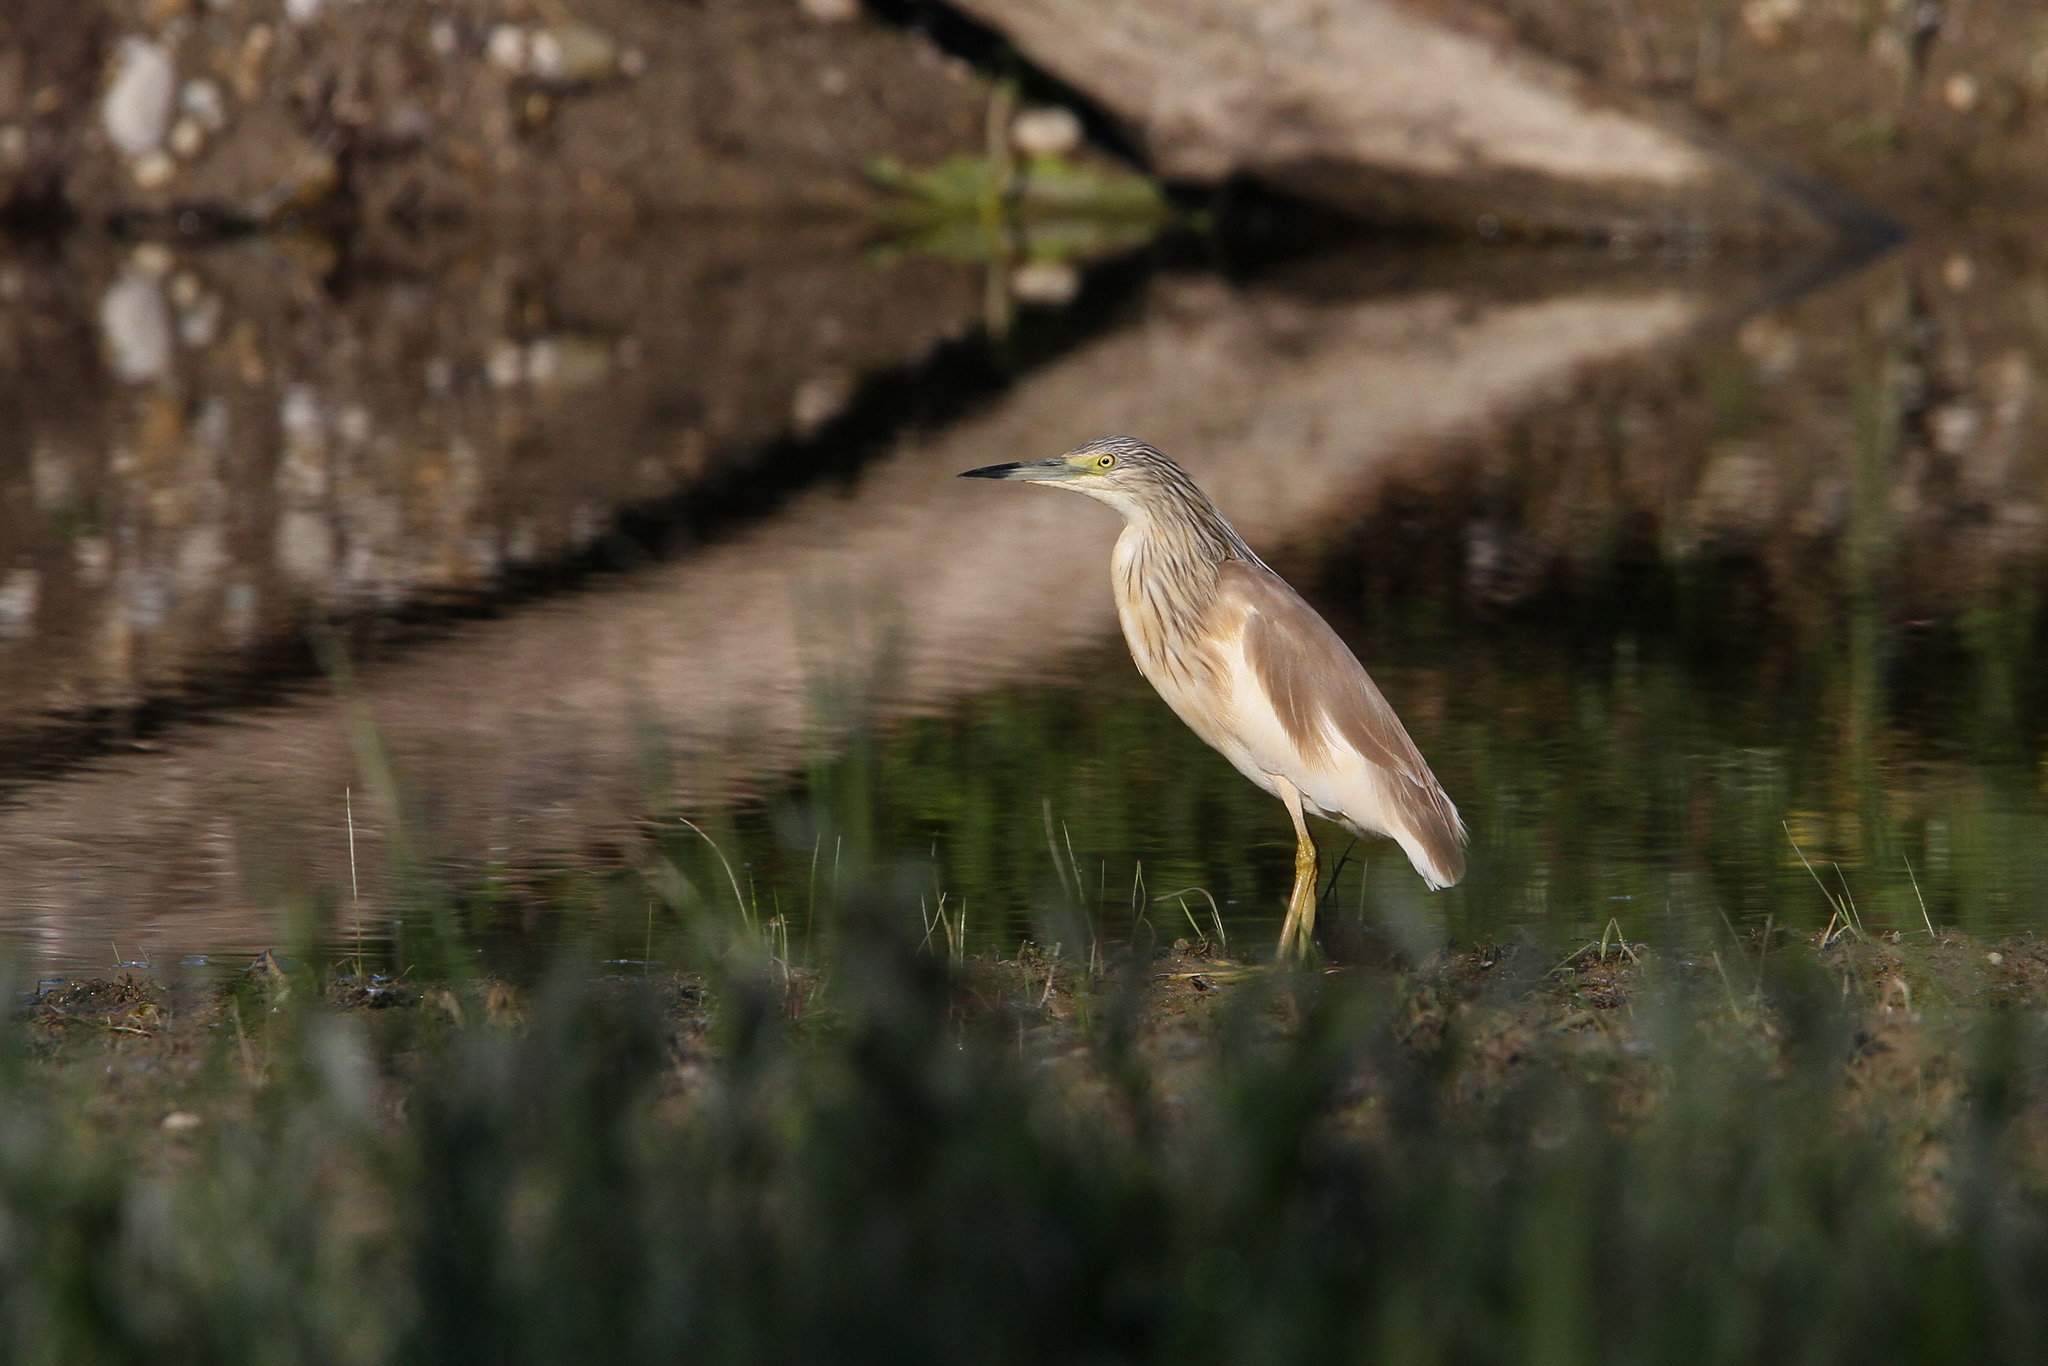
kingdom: Animalia
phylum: Chordata
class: Aves
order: Pelecaniformes
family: Ardeidae
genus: Ardeola
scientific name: Ardeola ralloides
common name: Squacco heron
